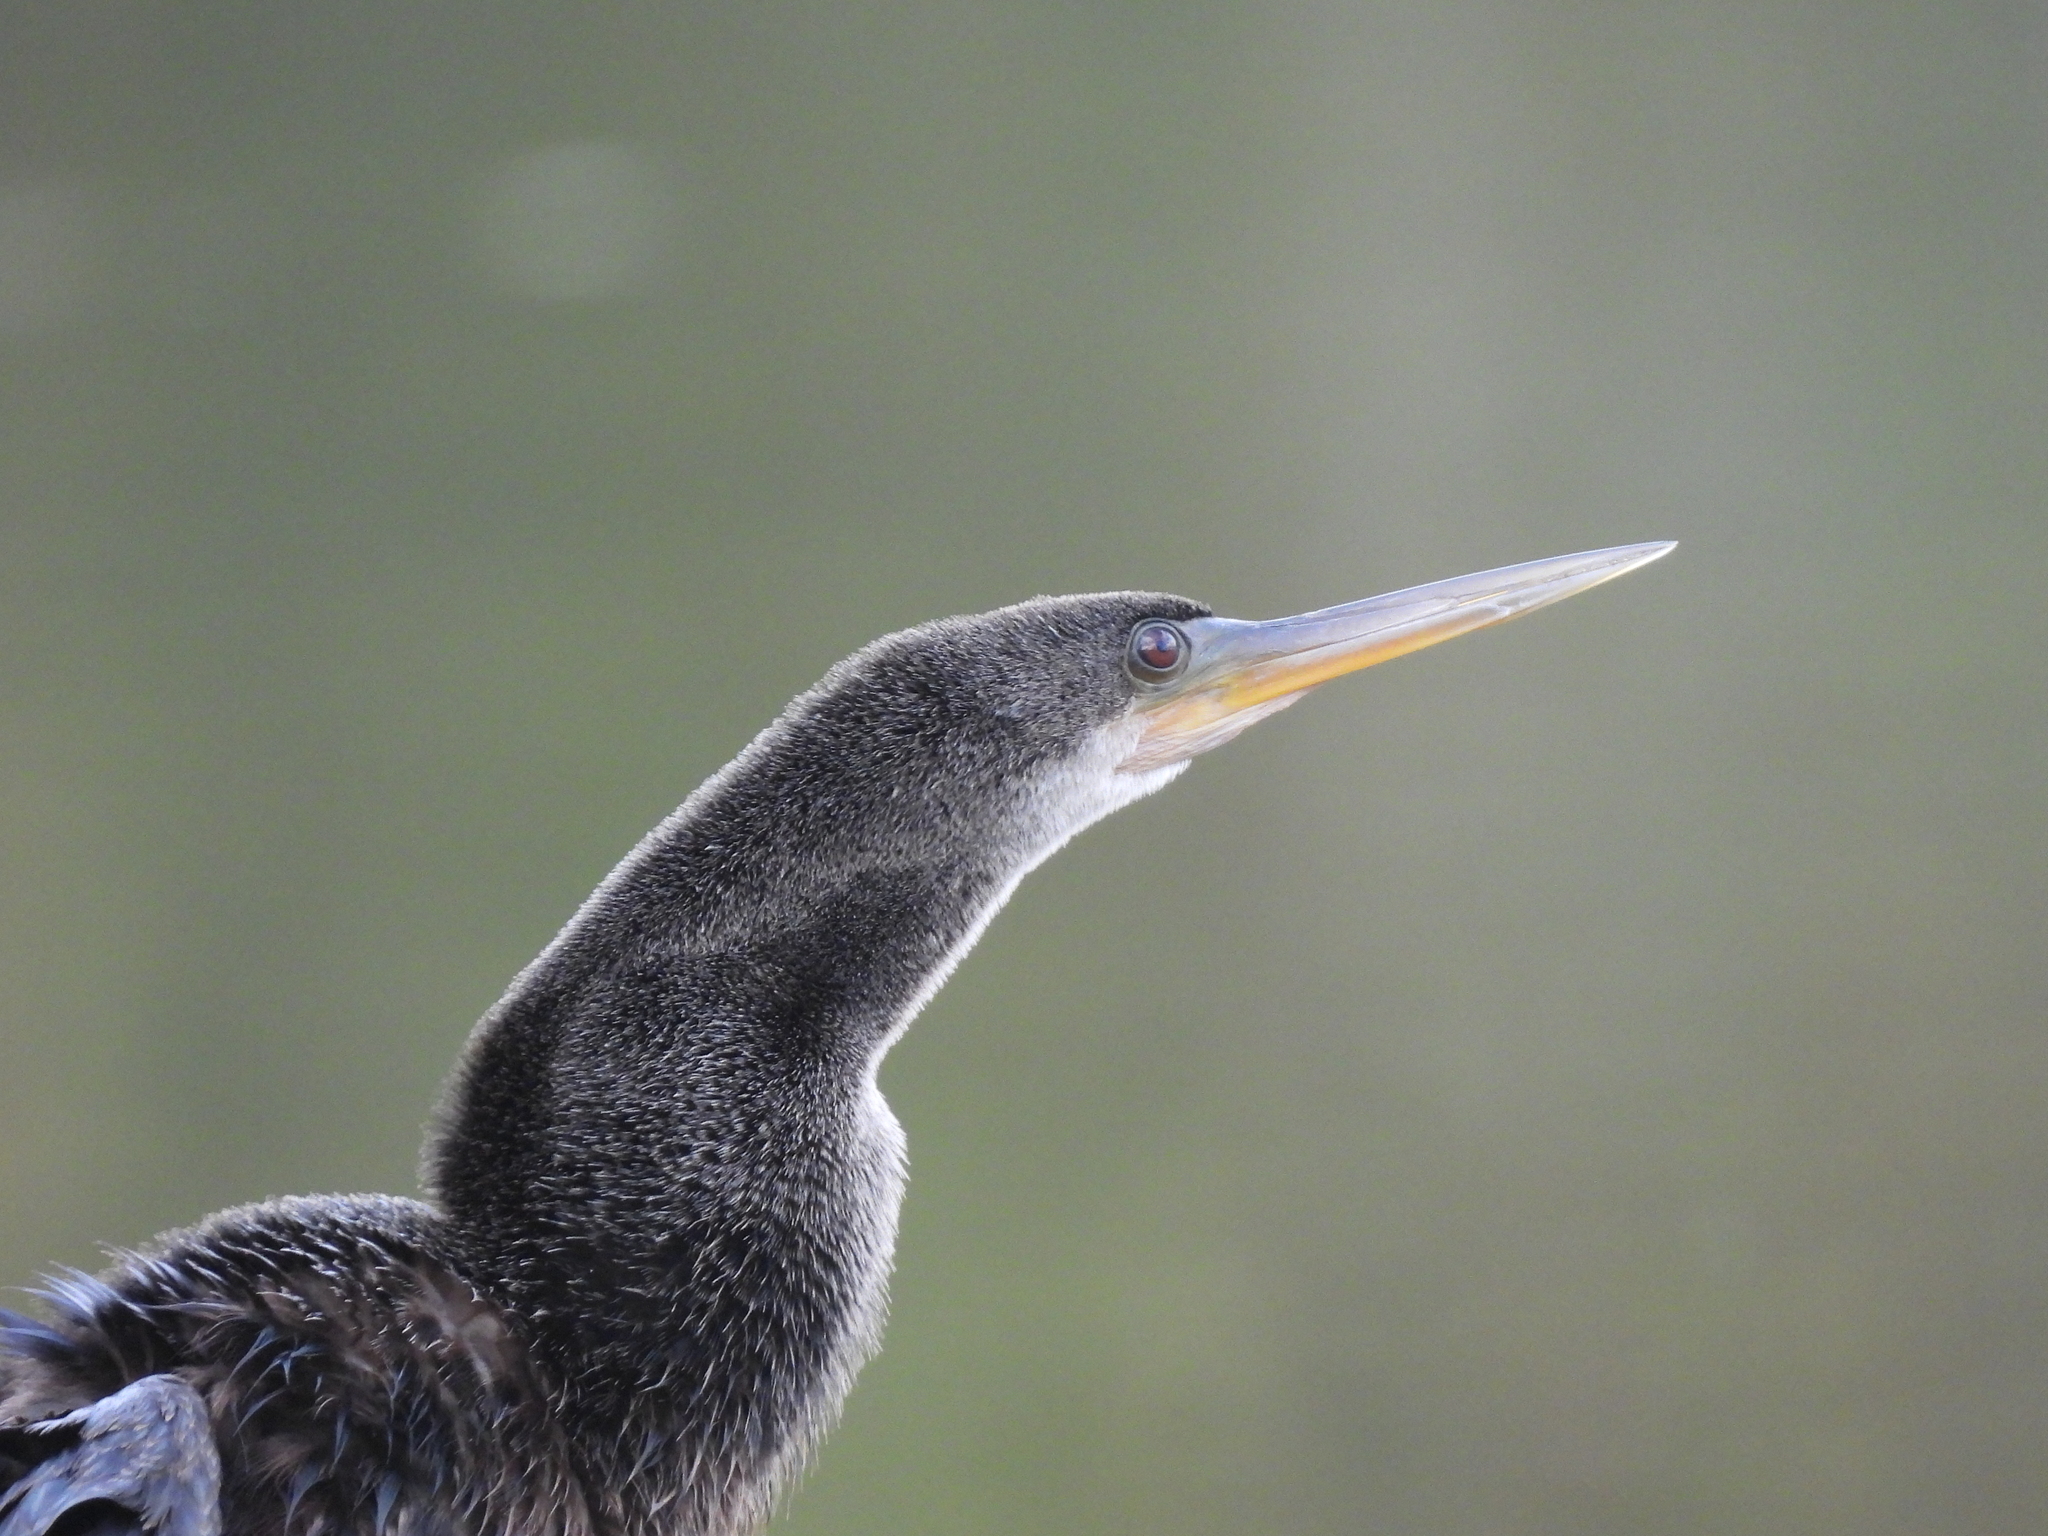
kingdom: Animalia
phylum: Chordata
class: Aves
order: Suliformes
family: Anhingidae
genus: Anhinga
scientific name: Anhinga anhinga
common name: Anhinga
